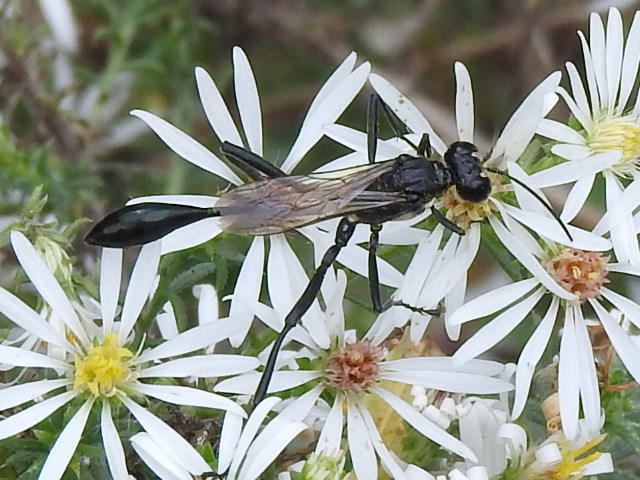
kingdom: Animalia
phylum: Arthropoda
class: Insecta
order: Hymenoptera
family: Sphecidae
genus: Eremnophila
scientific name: Eremnophila aureonotata
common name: Gold-marked thread-waisted wasp
